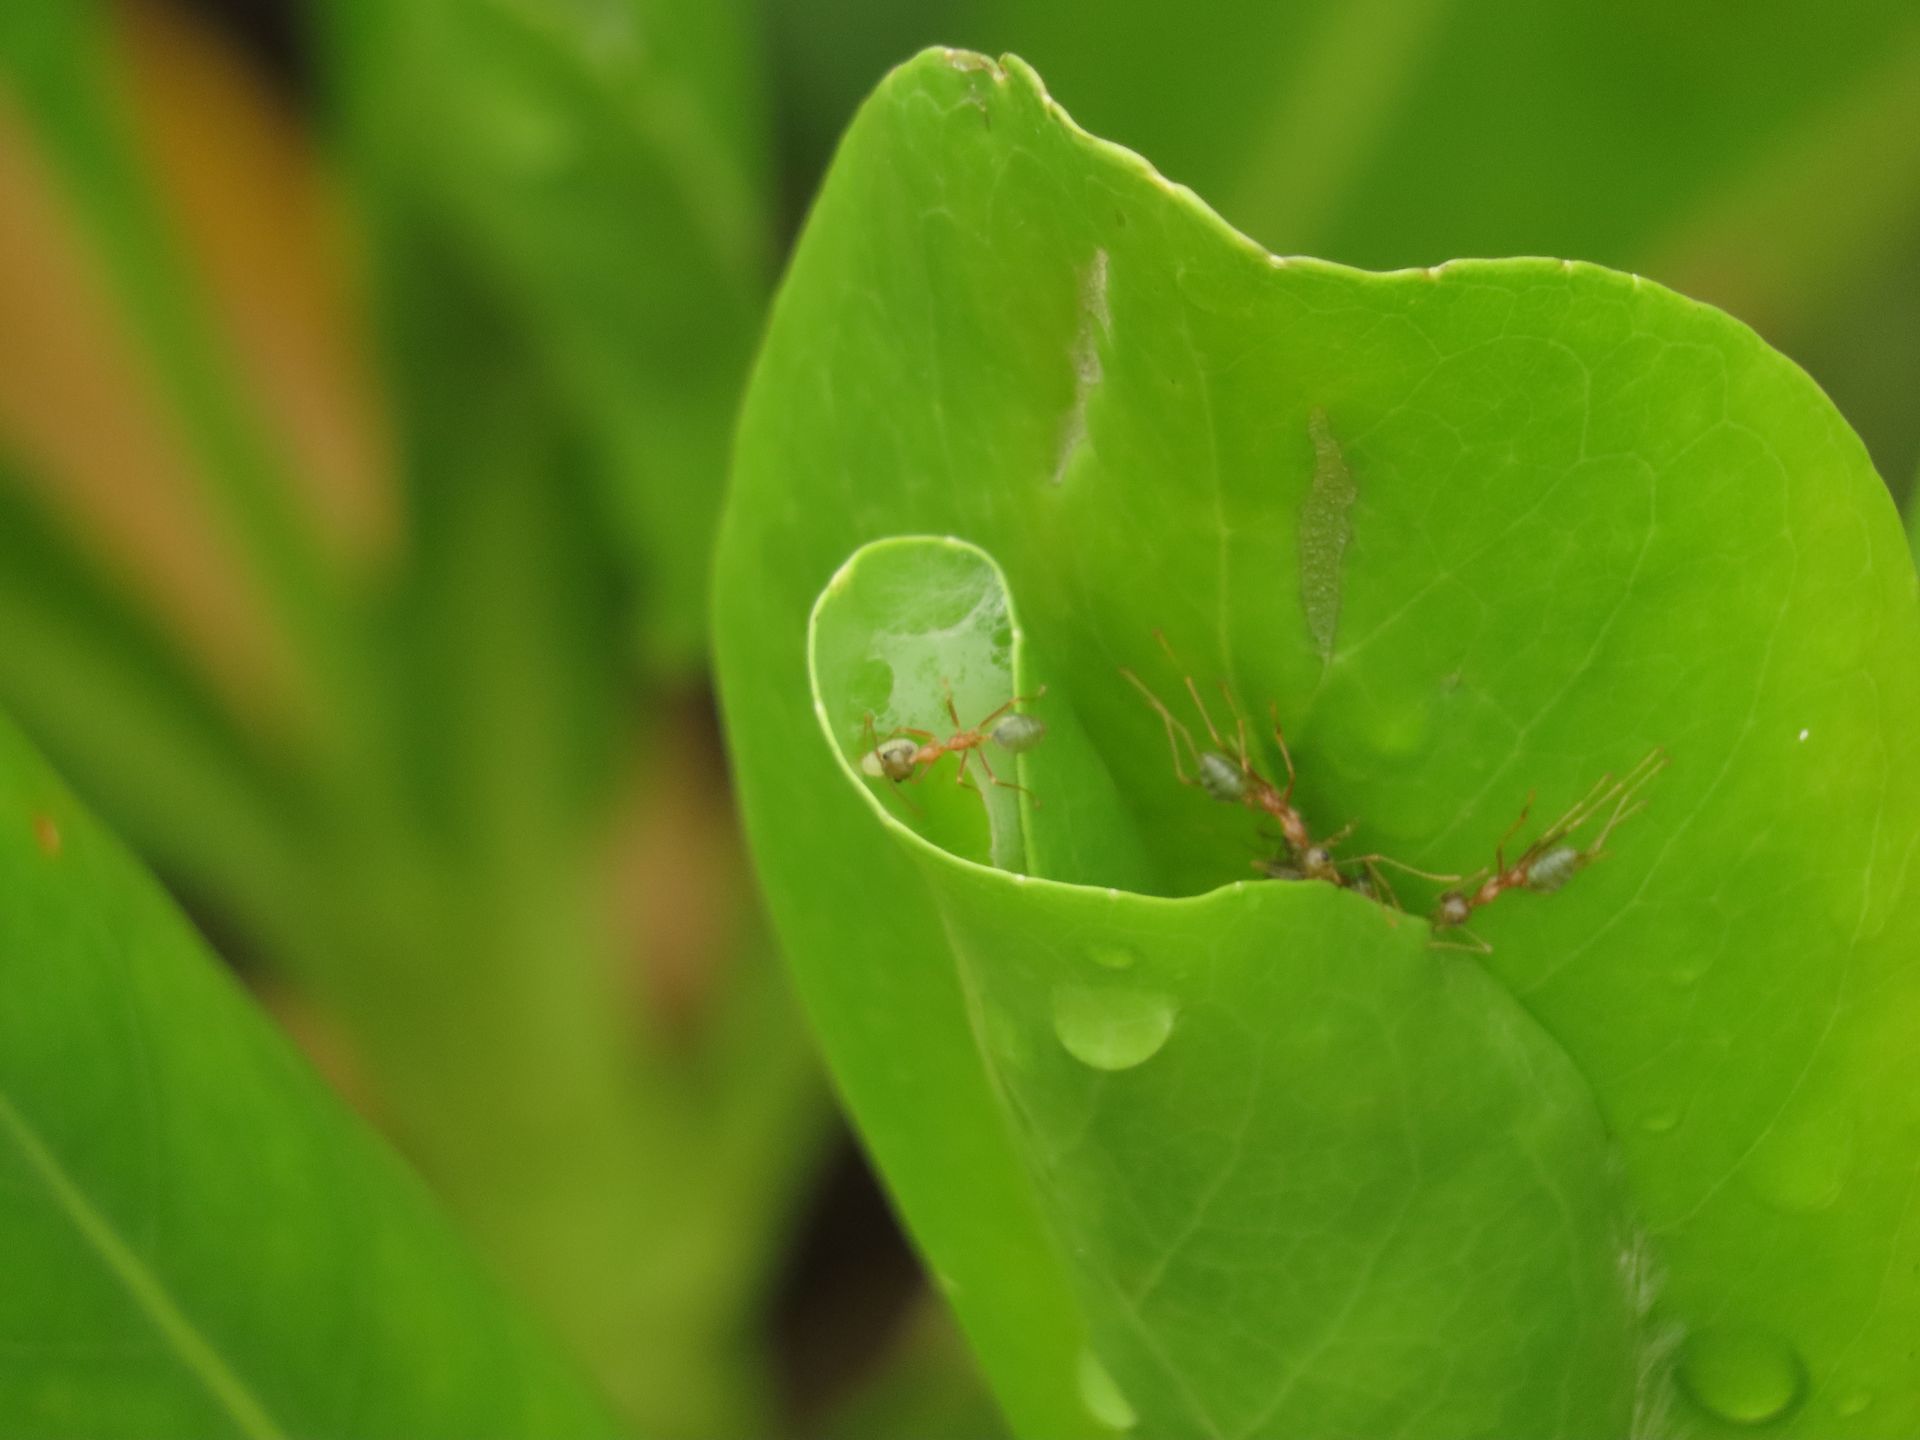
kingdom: Animalia
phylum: Arthropoda
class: Insecta
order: Hymenoptera
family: Formicidae
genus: Oecophylla
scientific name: Oecophylla smaragdina
